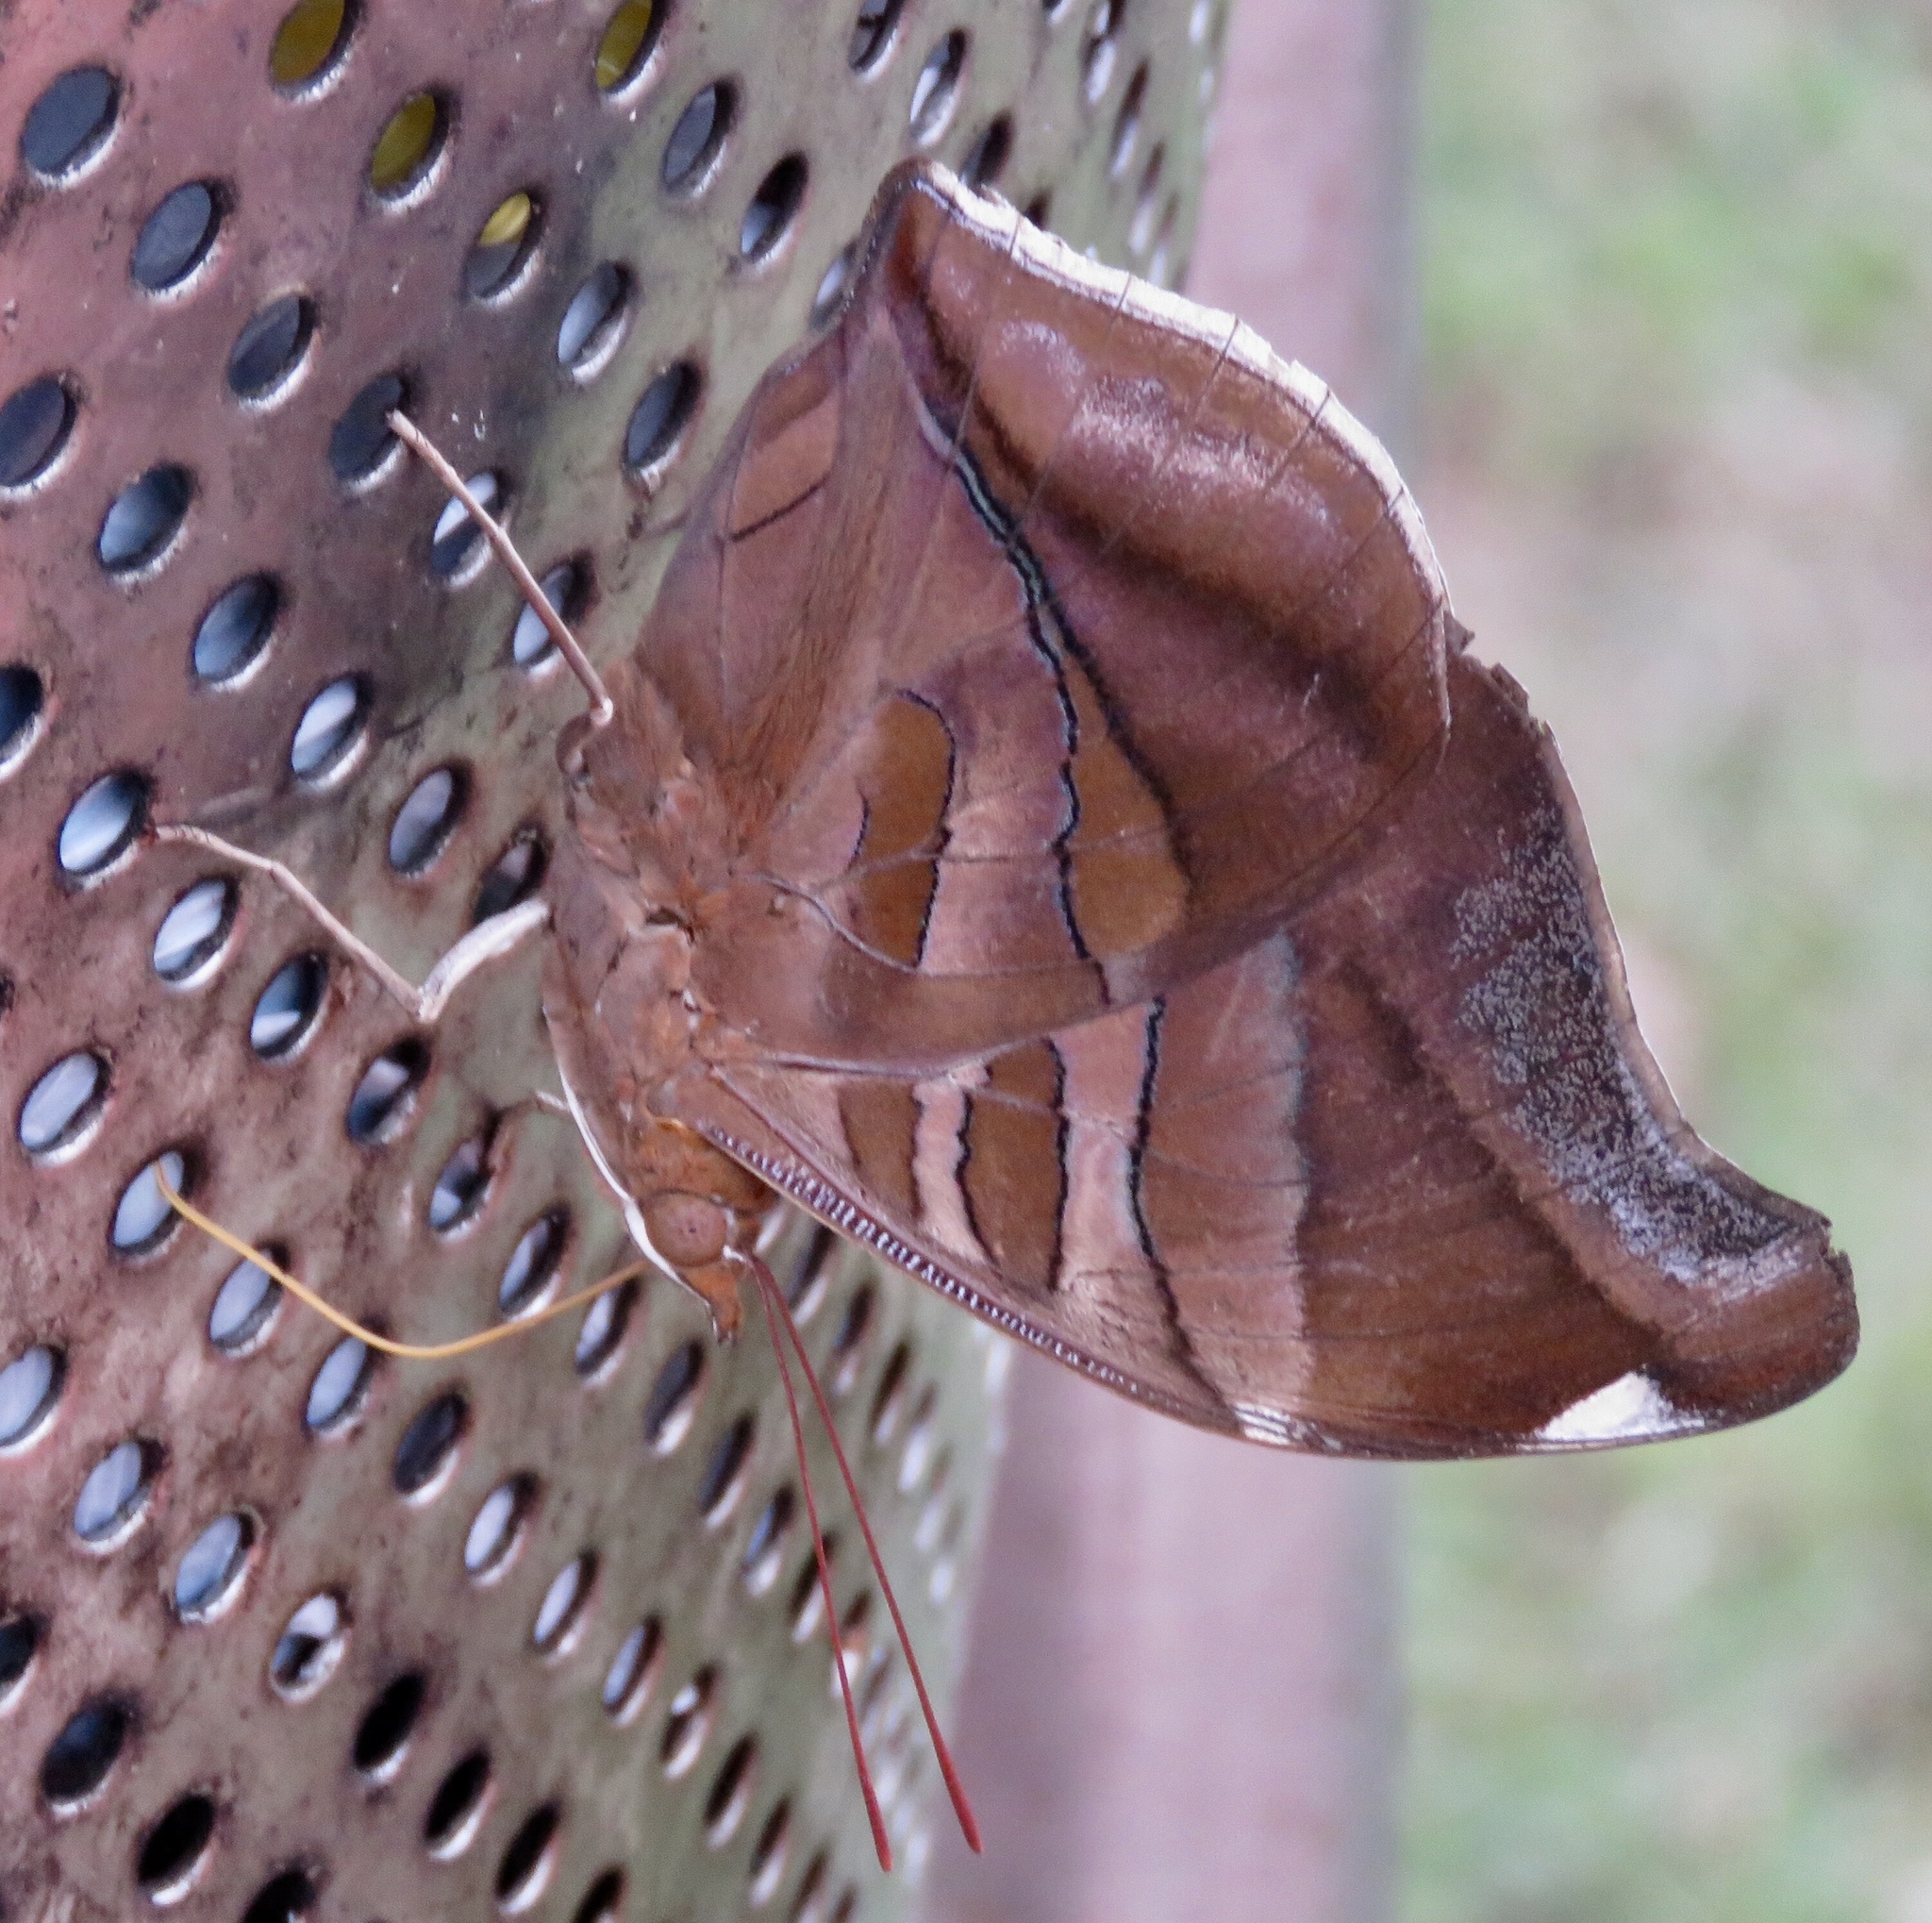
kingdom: Animalia
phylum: Arthropoda
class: Insecta
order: Lepidoptera
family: Nymphalidae
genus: Historis
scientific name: Historis odius
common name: Orion cecropian
